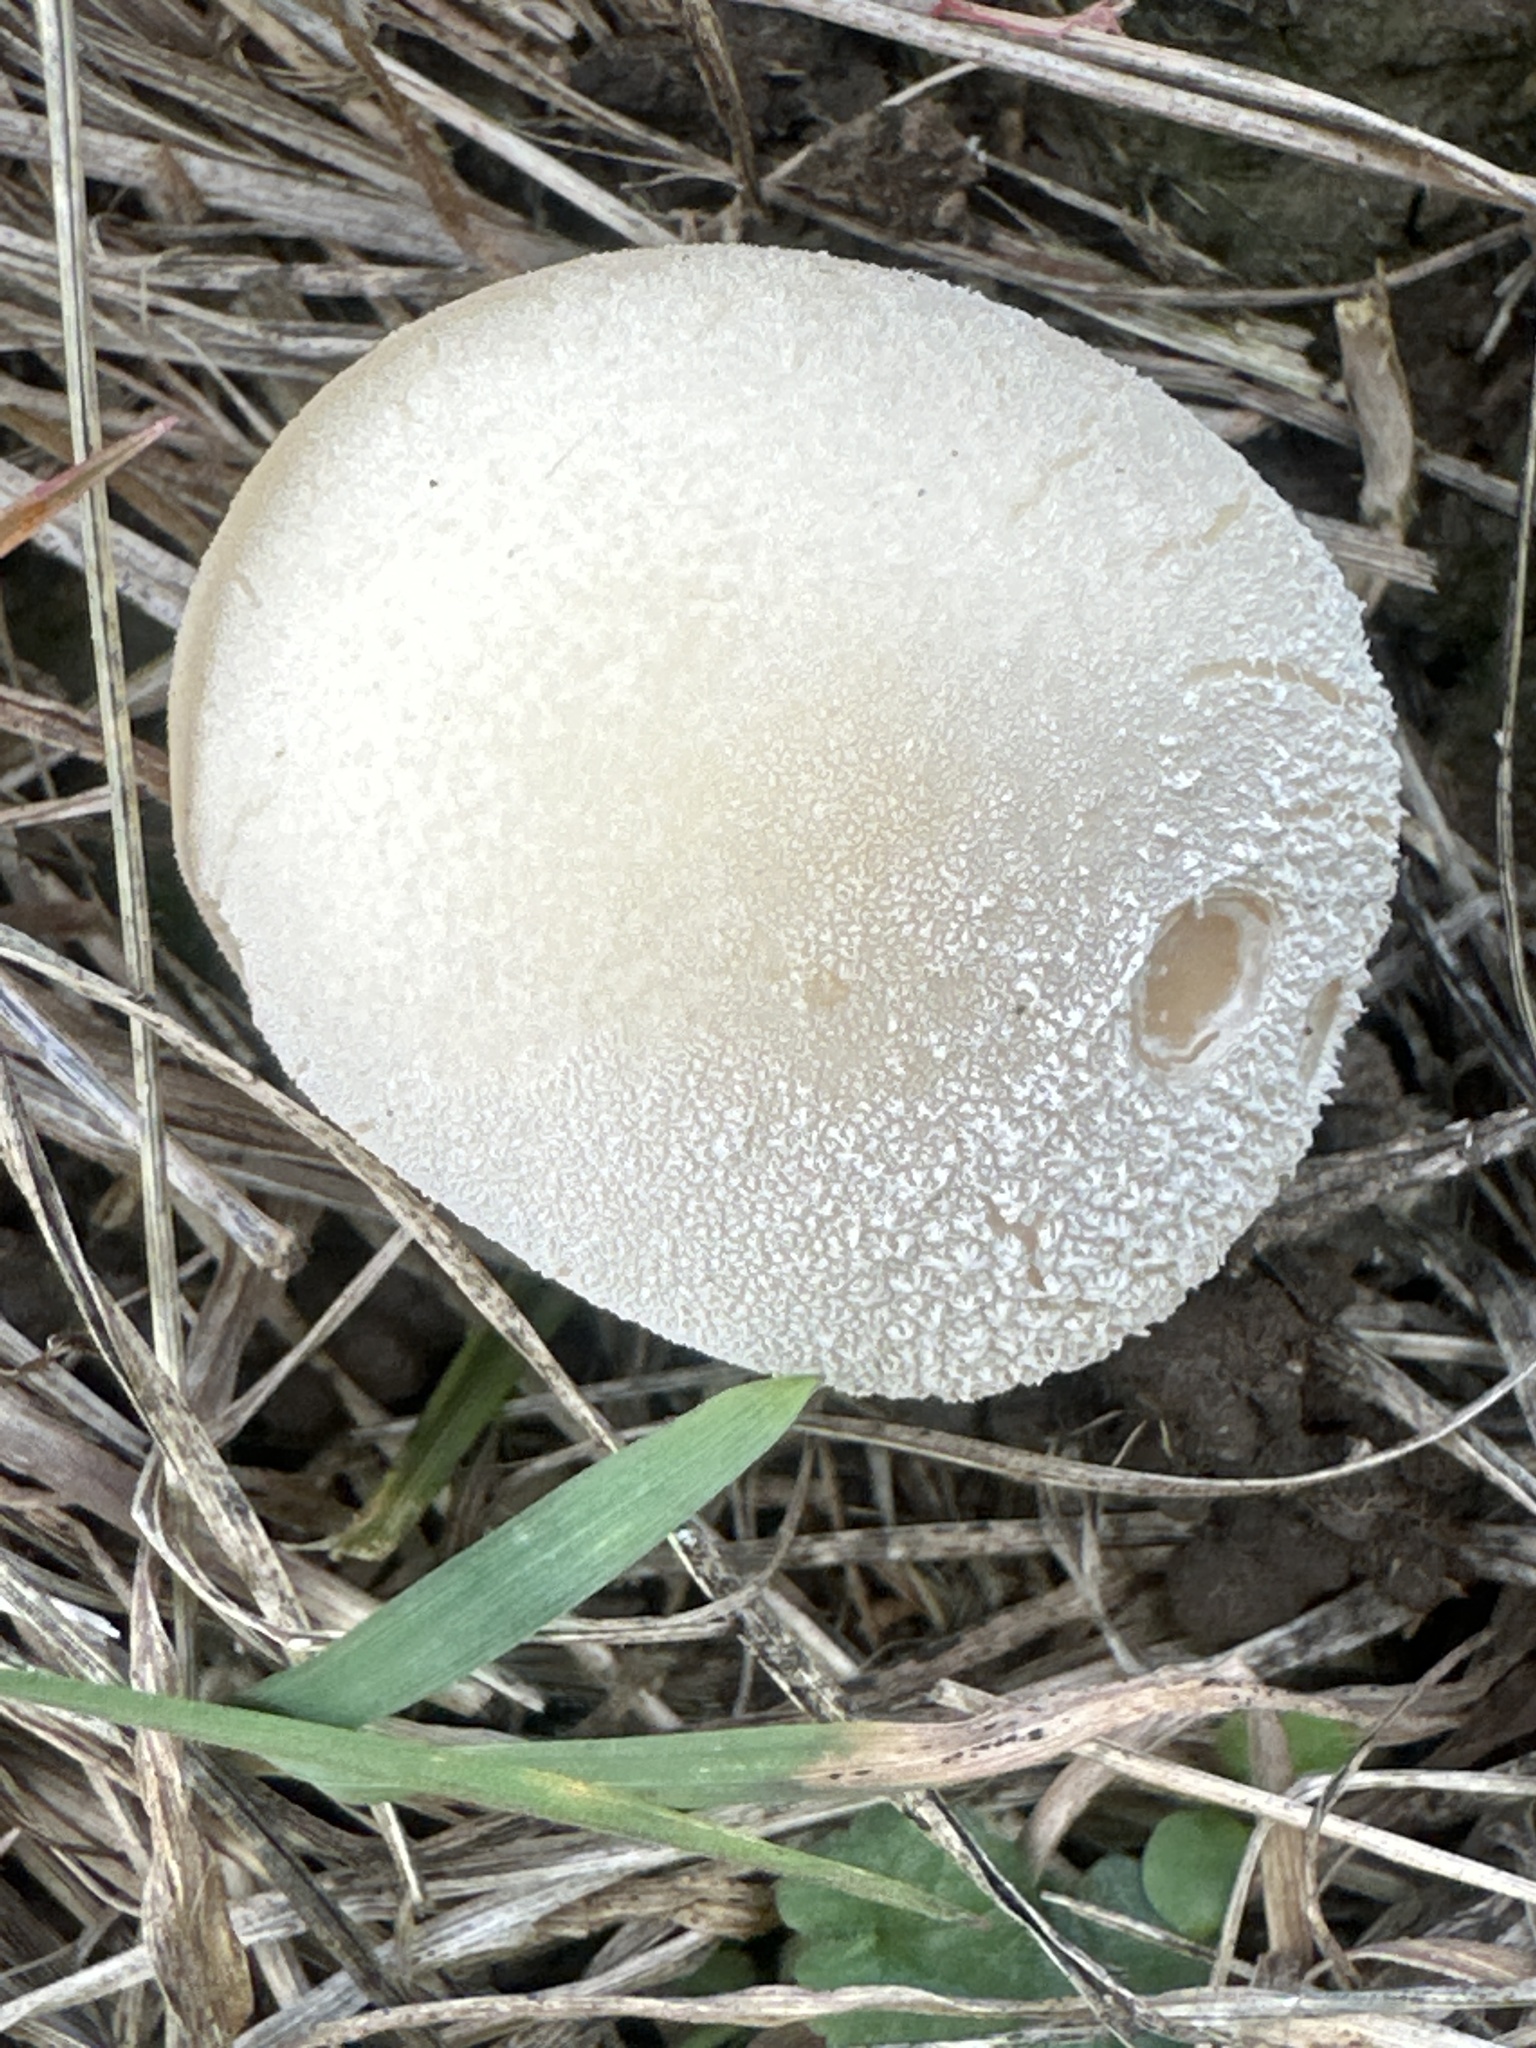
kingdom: Fungi
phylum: Basidiomycota
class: Agaricomycetes
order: Agaricales
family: Lycoperdaceae
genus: Lycoperdon
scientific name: Lycoperdon pratense
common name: Meadow puffball
